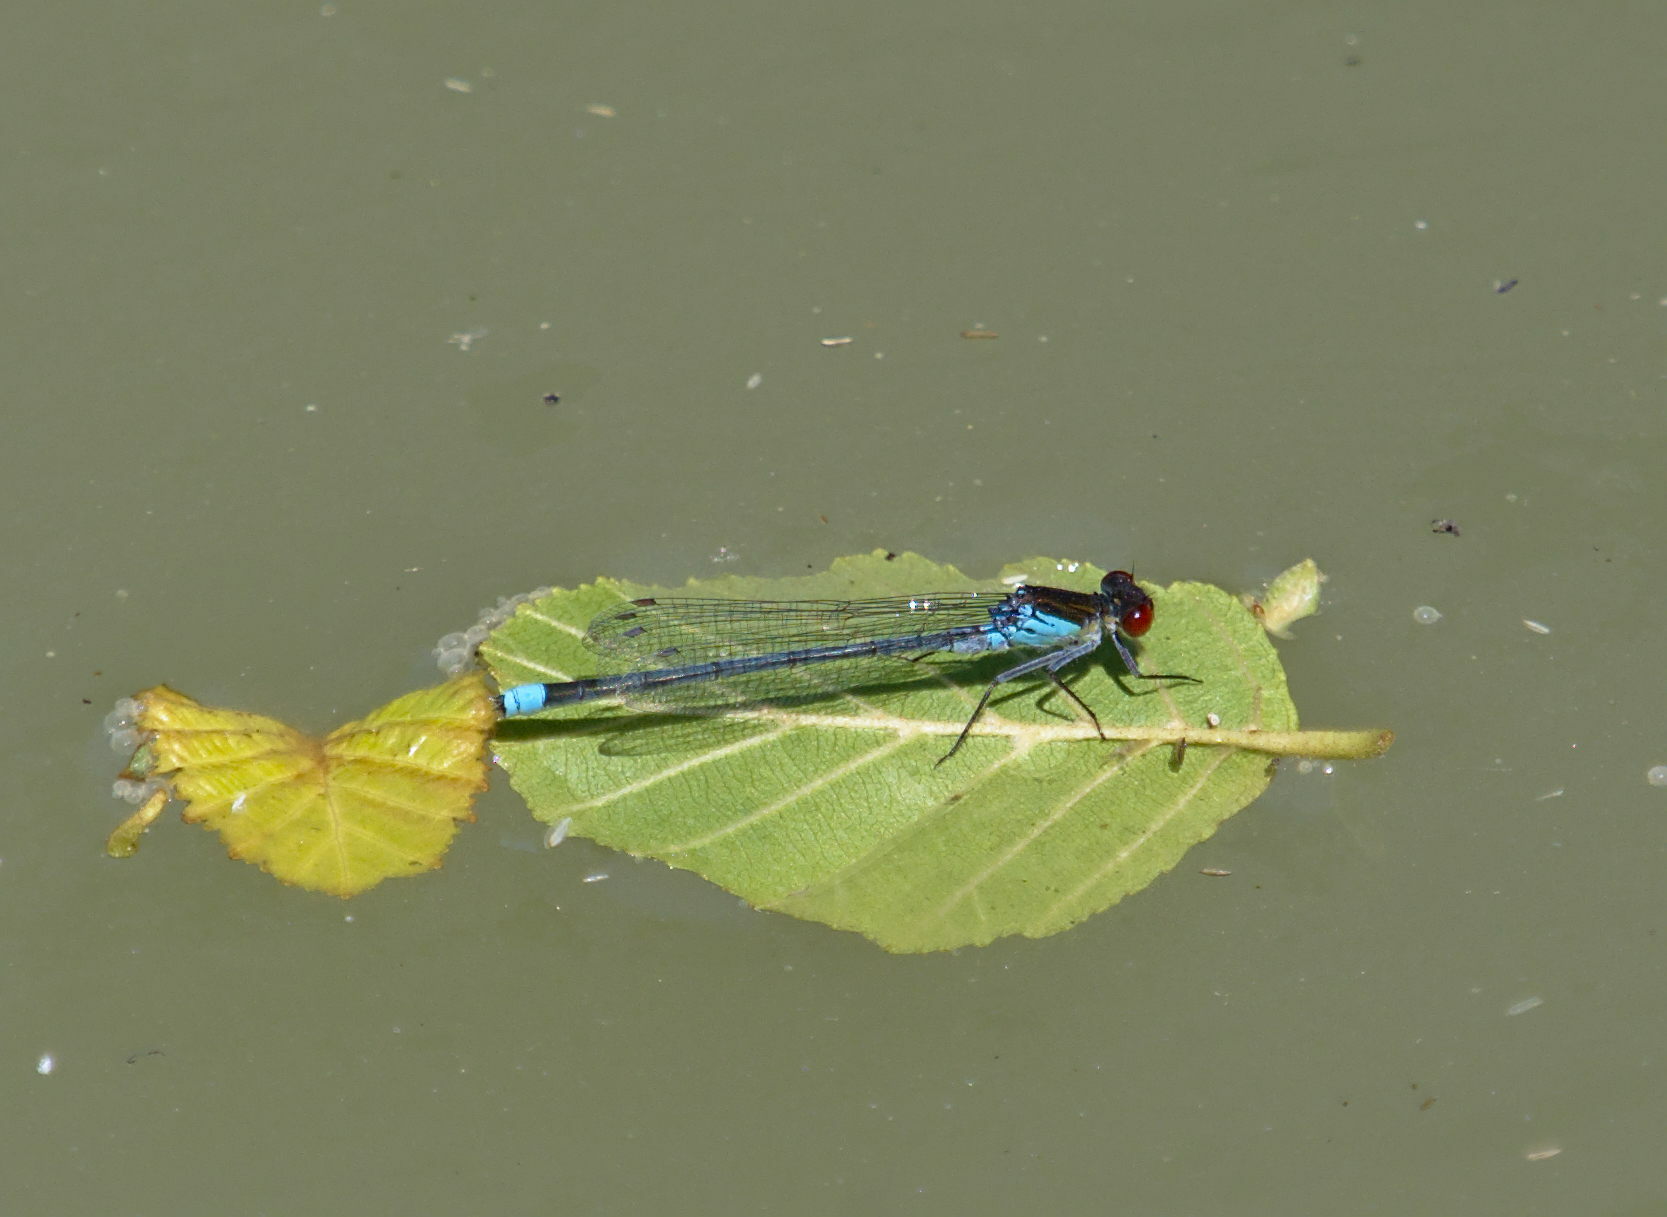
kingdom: Animalia
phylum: Arthropoda
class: Insecta
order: Odonata
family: Coenagrionidae
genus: Erythromma
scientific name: Erythromma najas
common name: Red-eyed damselfly
